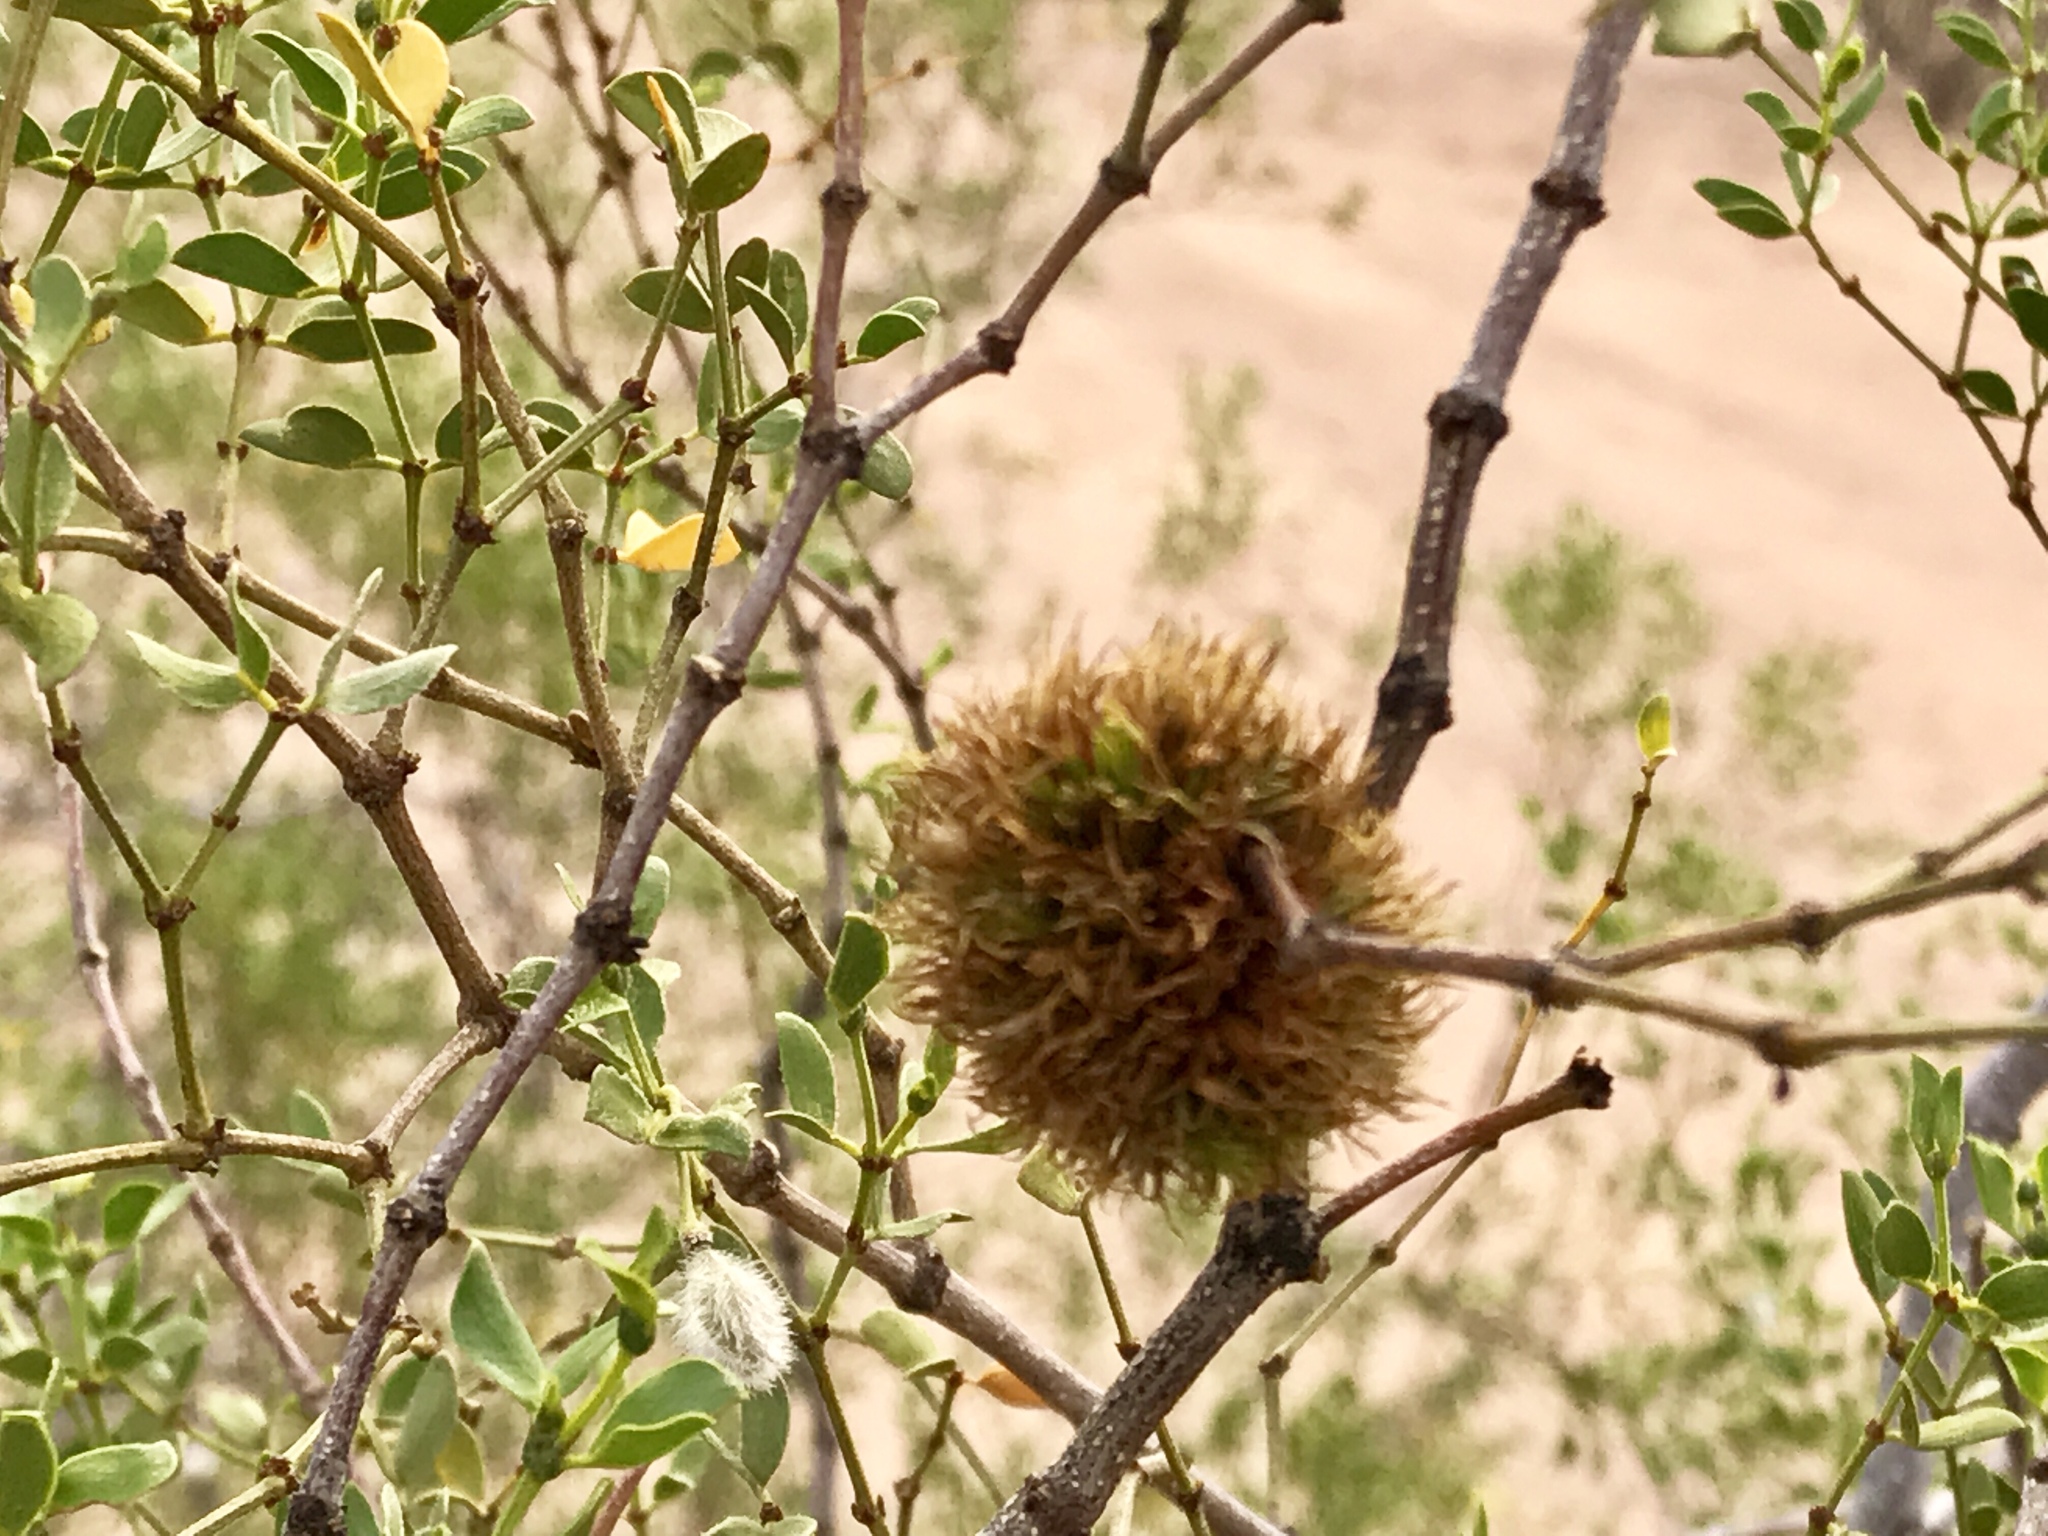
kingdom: Animalia
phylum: Arthropoda
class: Insecta
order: Diptera
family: Cecidomyiidae
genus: Asphondylia
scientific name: Asphondylia auripila
